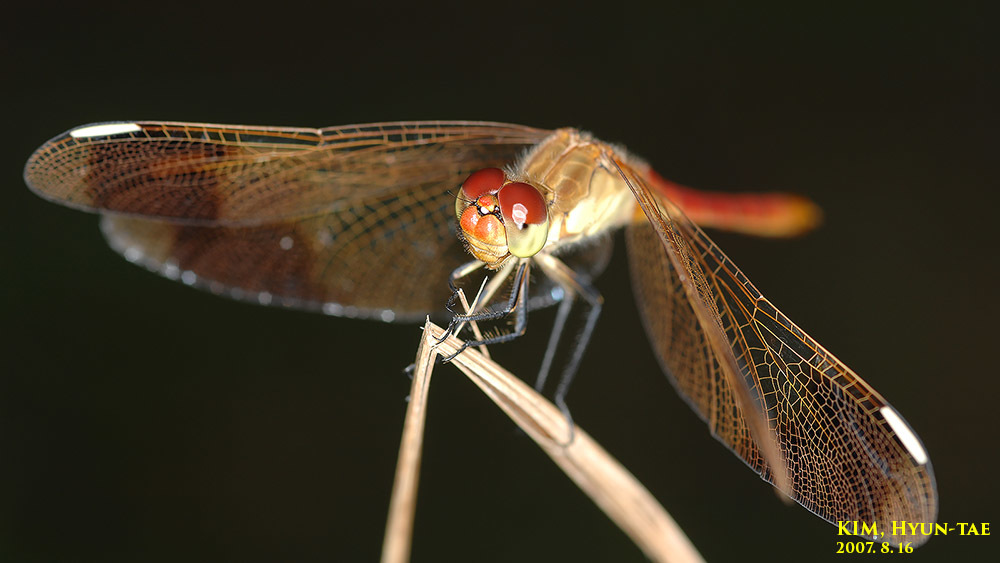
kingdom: Animalia
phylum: Arthropoda
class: Insecta
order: Odonata
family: Libellulidae
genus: Sympetrum
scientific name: Sympetrum pedemontanum
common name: Banded darter
